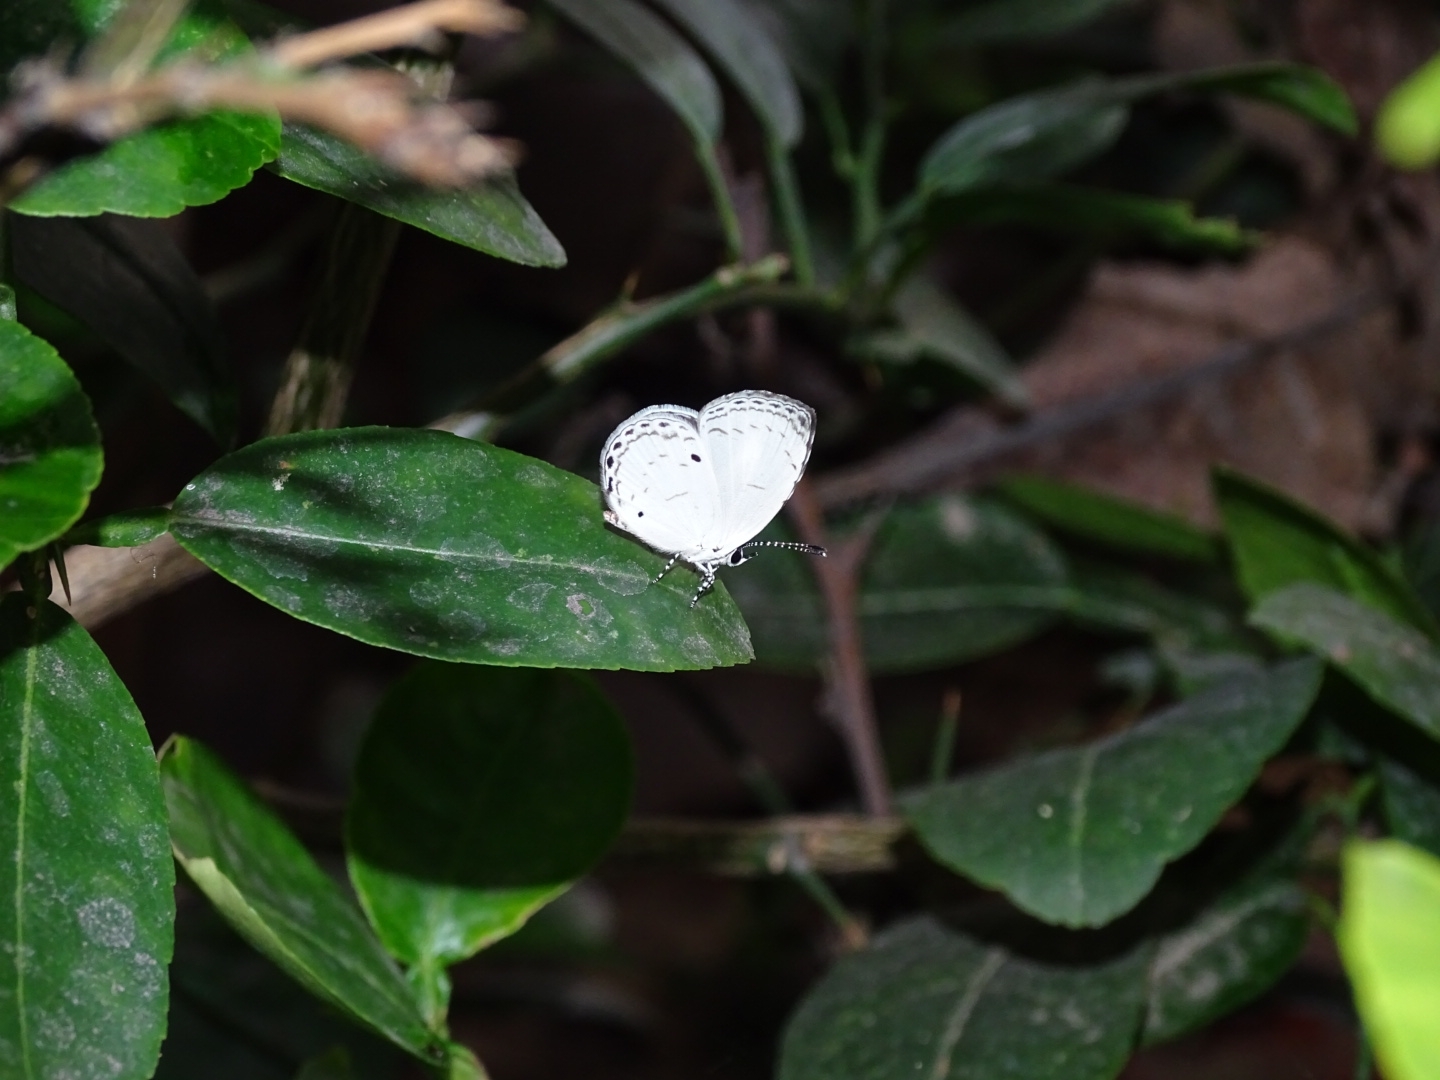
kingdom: Animalia
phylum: Arthropoda
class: Insecta
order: Lepidoptera
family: Lycaenidae
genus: Neopithecops
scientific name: Neopithecops zalmora
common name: Quaker
